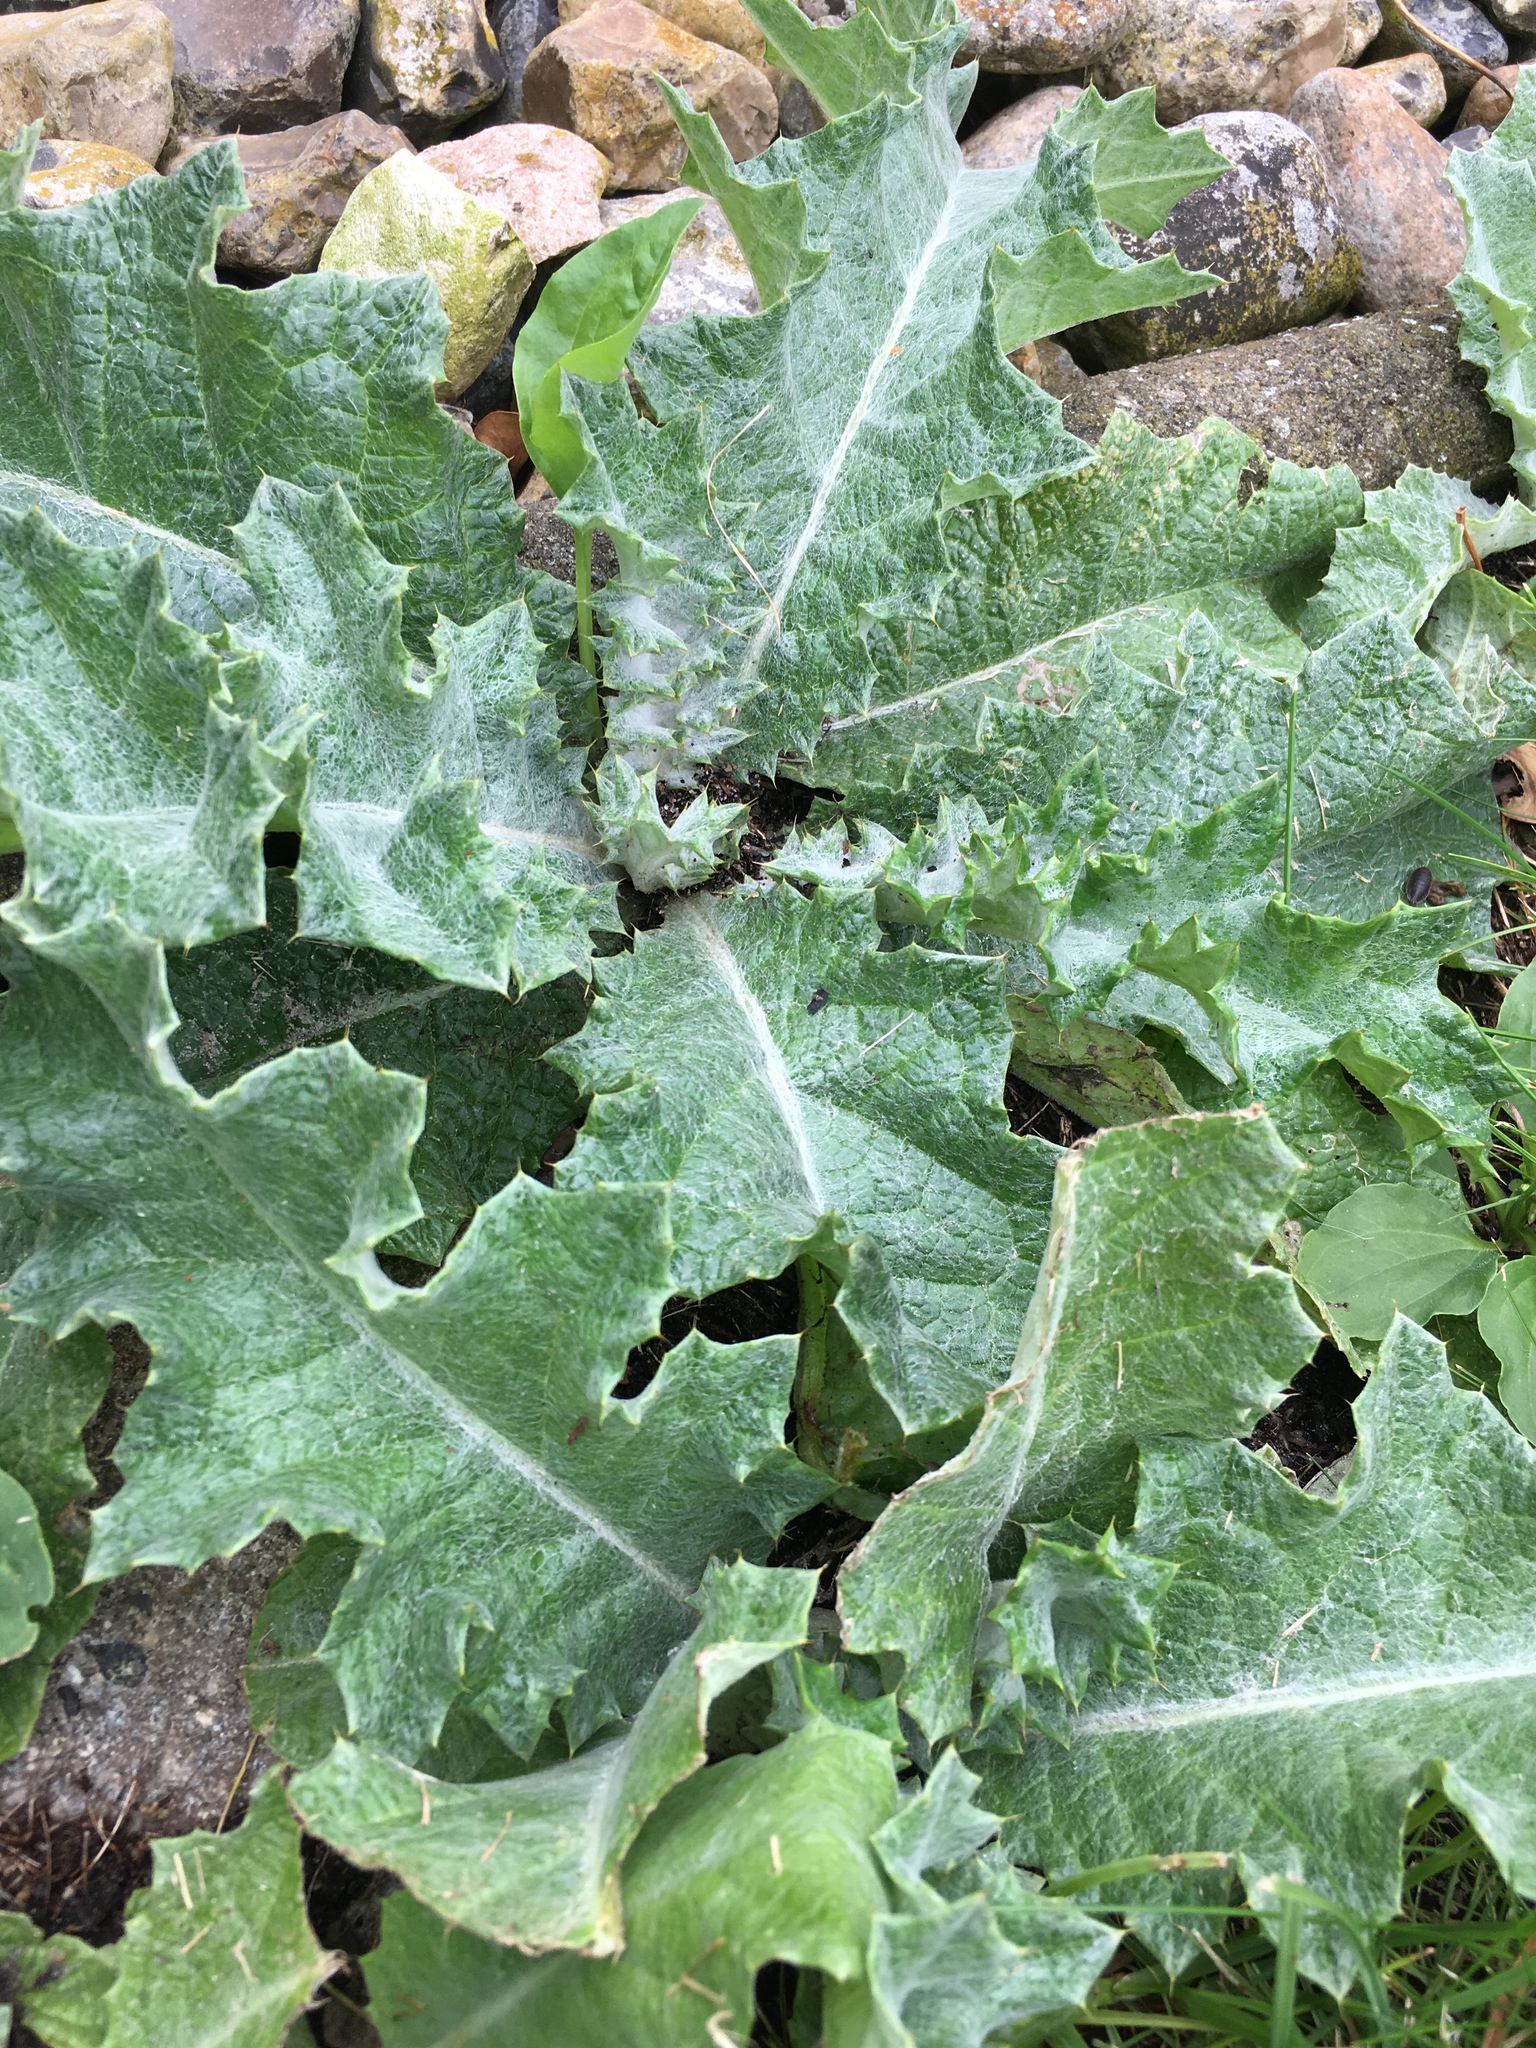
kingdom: Plantae
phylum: Tracheophyta
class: Magnoliopsida
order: Asterales
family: Asteraceae
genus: Onopordum
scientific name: Onopordum acanthium
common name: Scotch thistle
